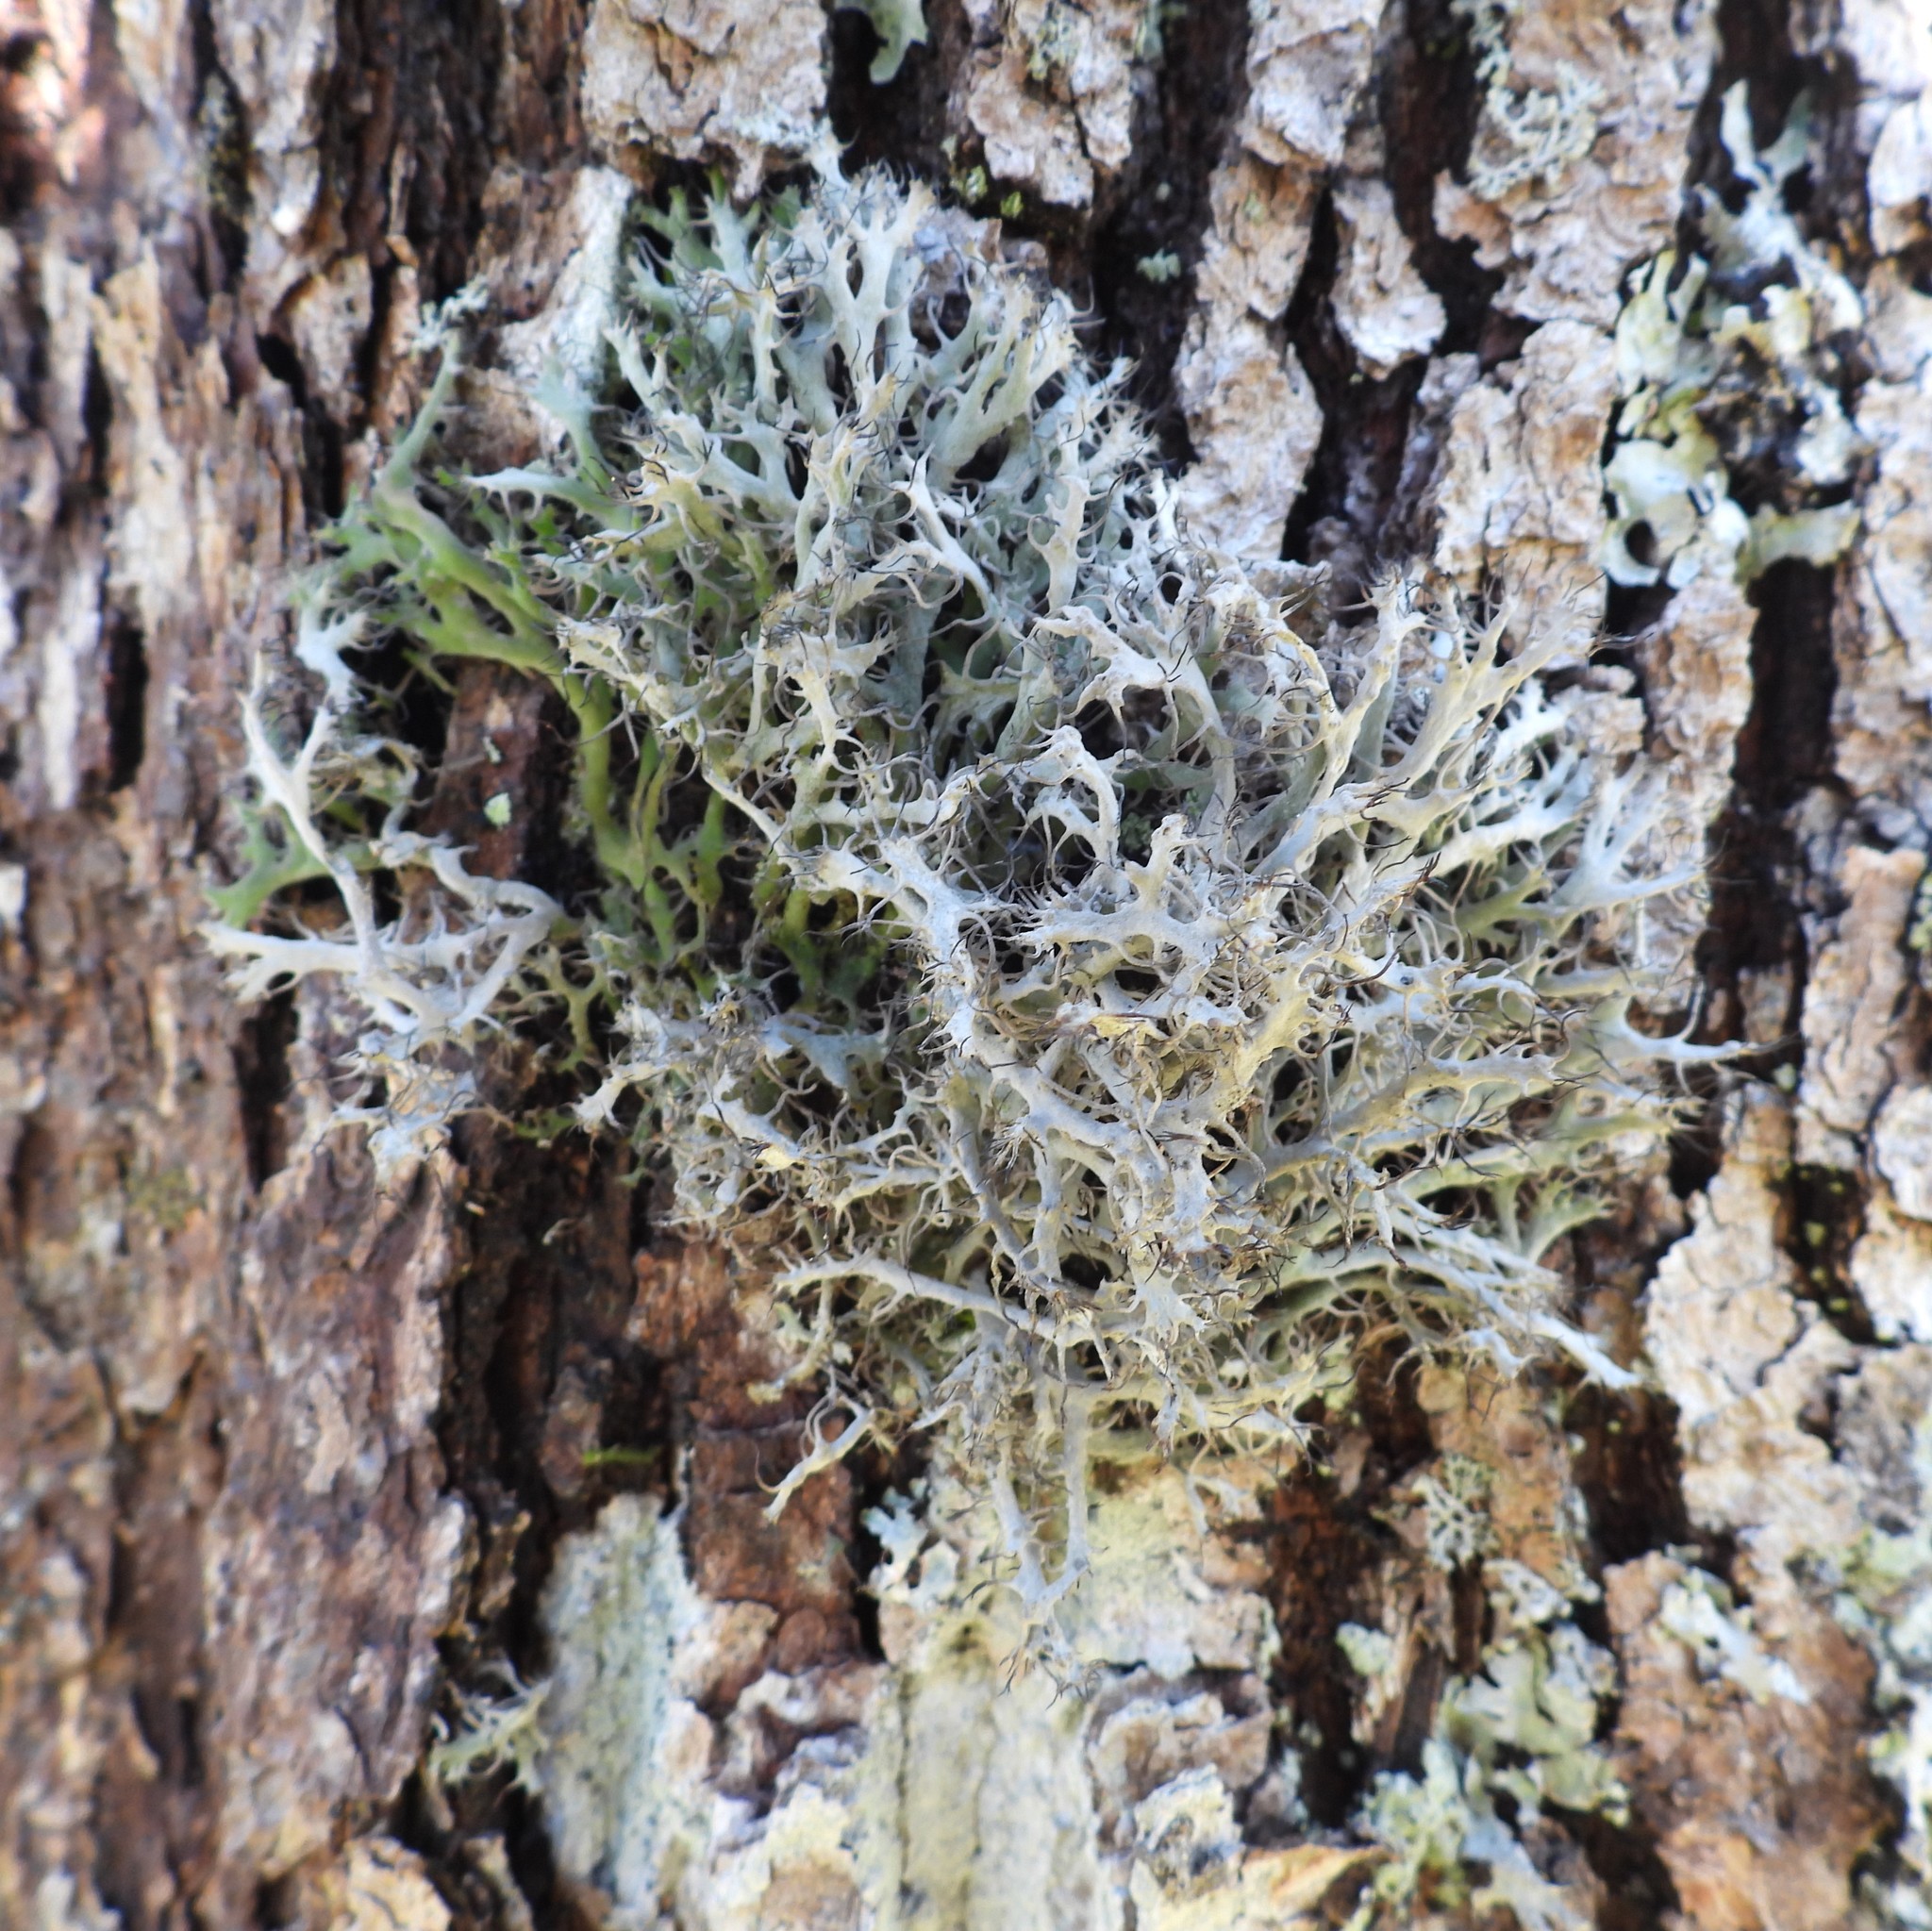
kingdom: Fungi
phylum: Ascomycota
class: Lecanoromycetes
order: Caliciales
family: Physciaceae
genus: Anaptychia
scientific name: Anaptychia ciliaris
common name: Great ciliated lichen
